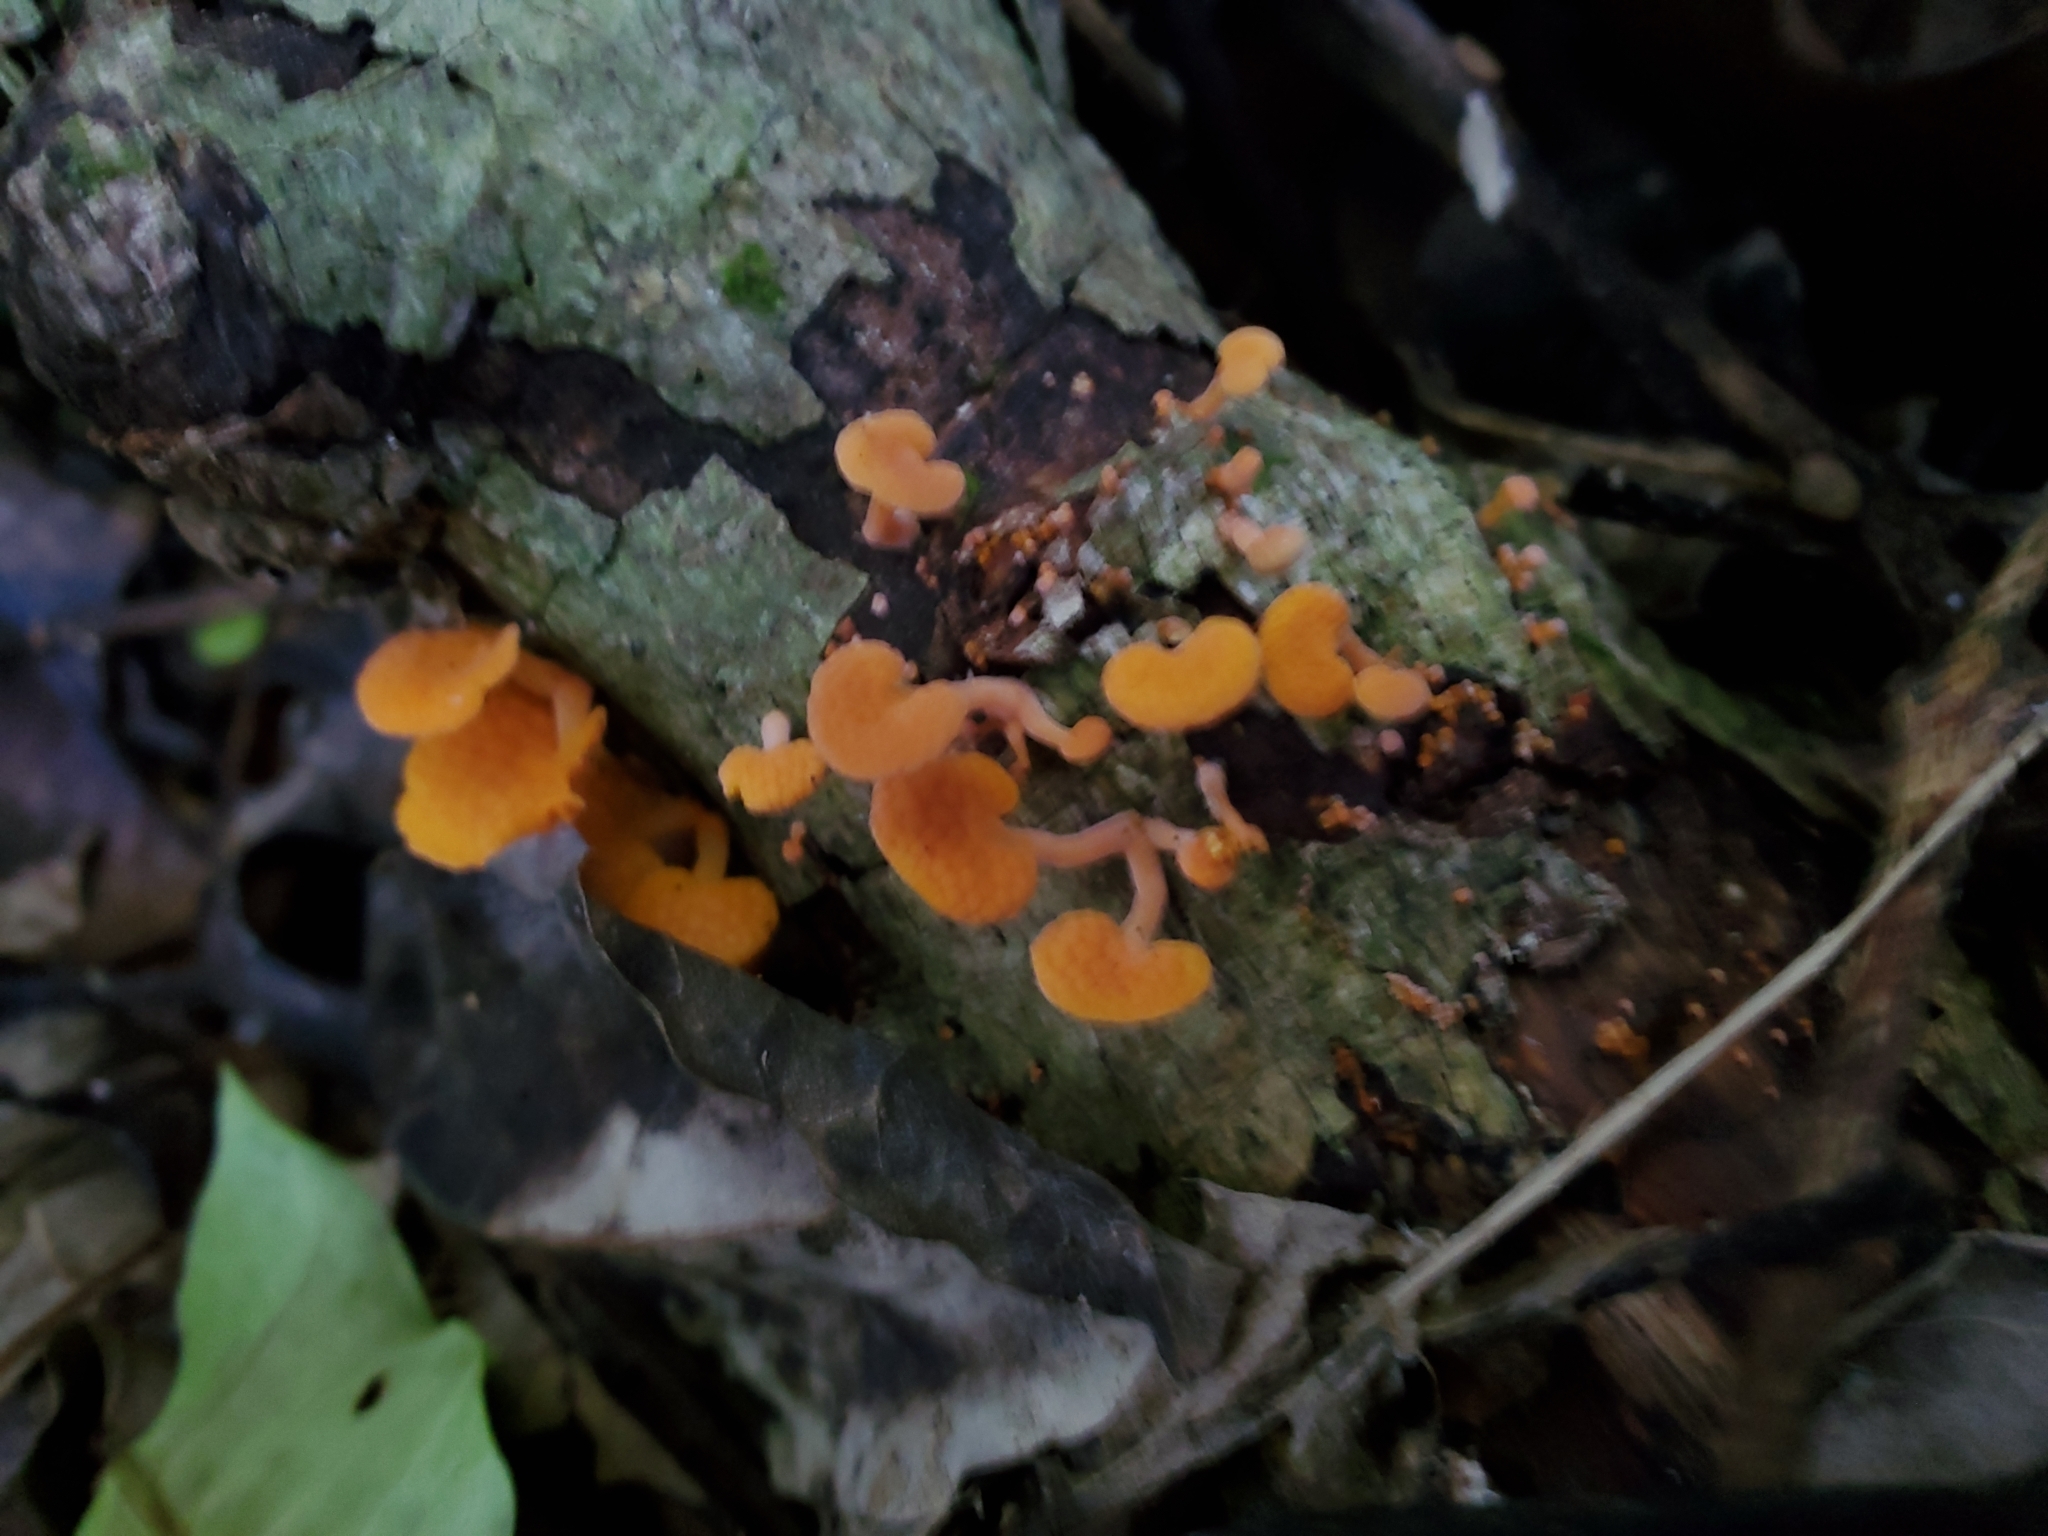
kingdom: Fungi
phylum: Basidiomycota
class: Agaricomycetes
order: Agaricales
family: Mycenaceae
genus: Favolaschia
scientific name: Favolaschia claudopus
